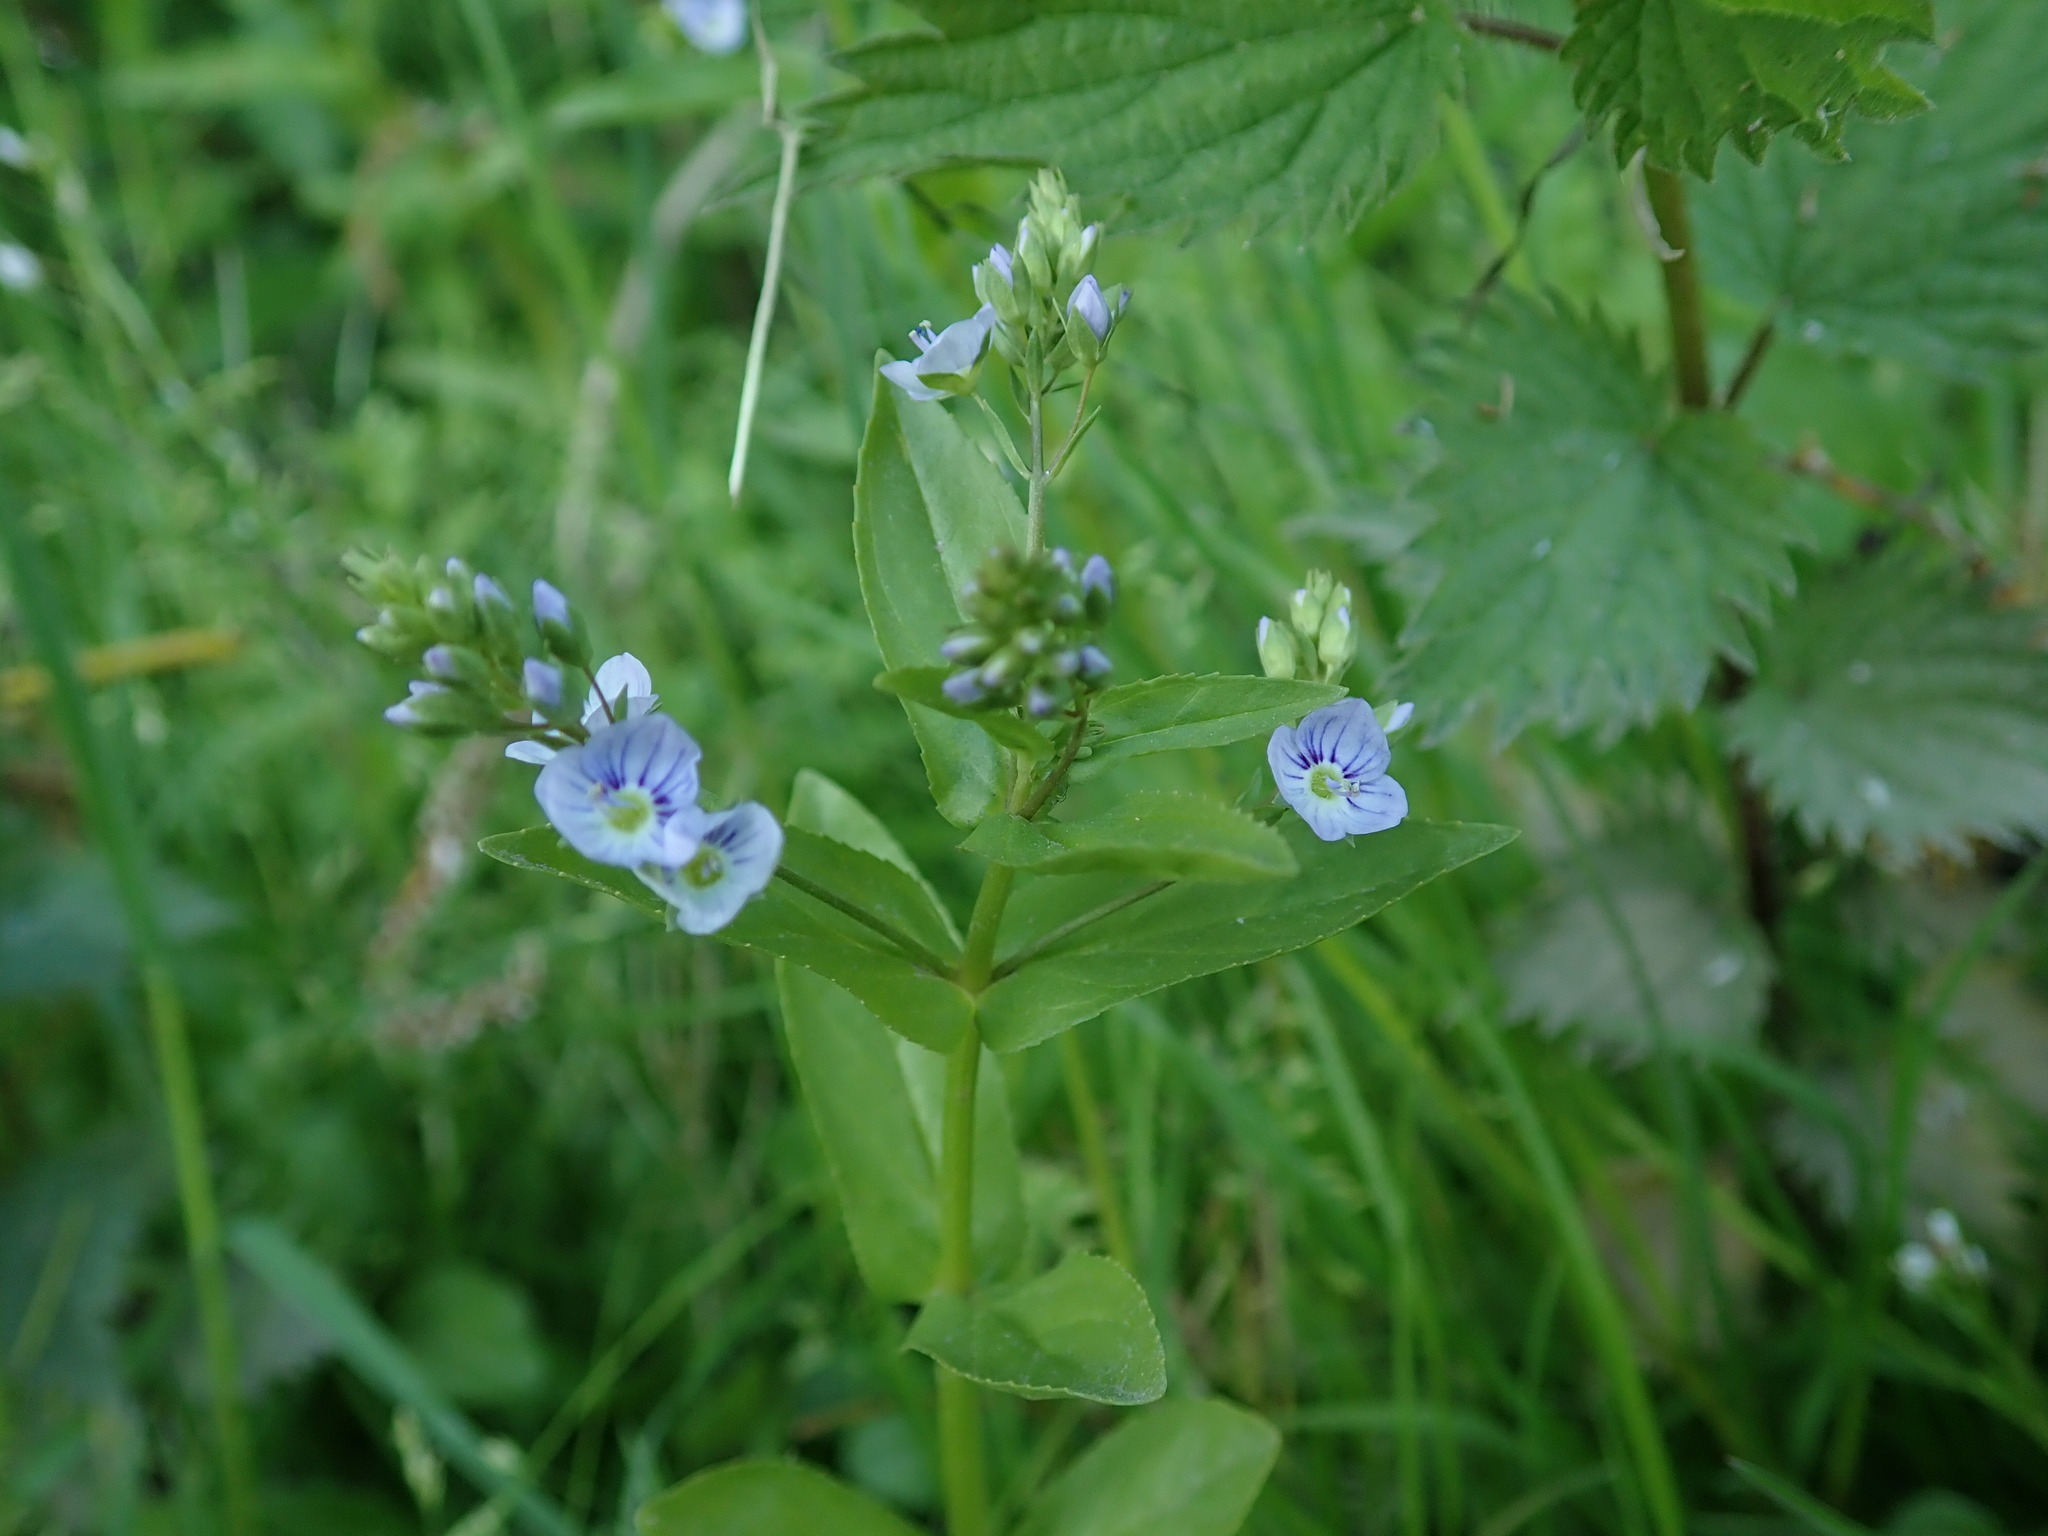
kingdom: Plantae
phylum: Tracheophyta
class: Magnoliopsida
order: Lamiales
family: Plantaginaceae
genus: Veronica
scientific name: Veronica anagallis-aquatica
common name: Water speedwell
